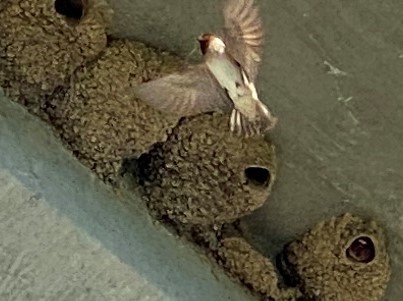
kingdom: Animalia
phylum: Chordata
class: Aves
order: Passeriformes
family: Hirundinidae
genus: Petrochelidon
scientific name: Petrochelidon pyrrhonota
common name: American cliff swallow
